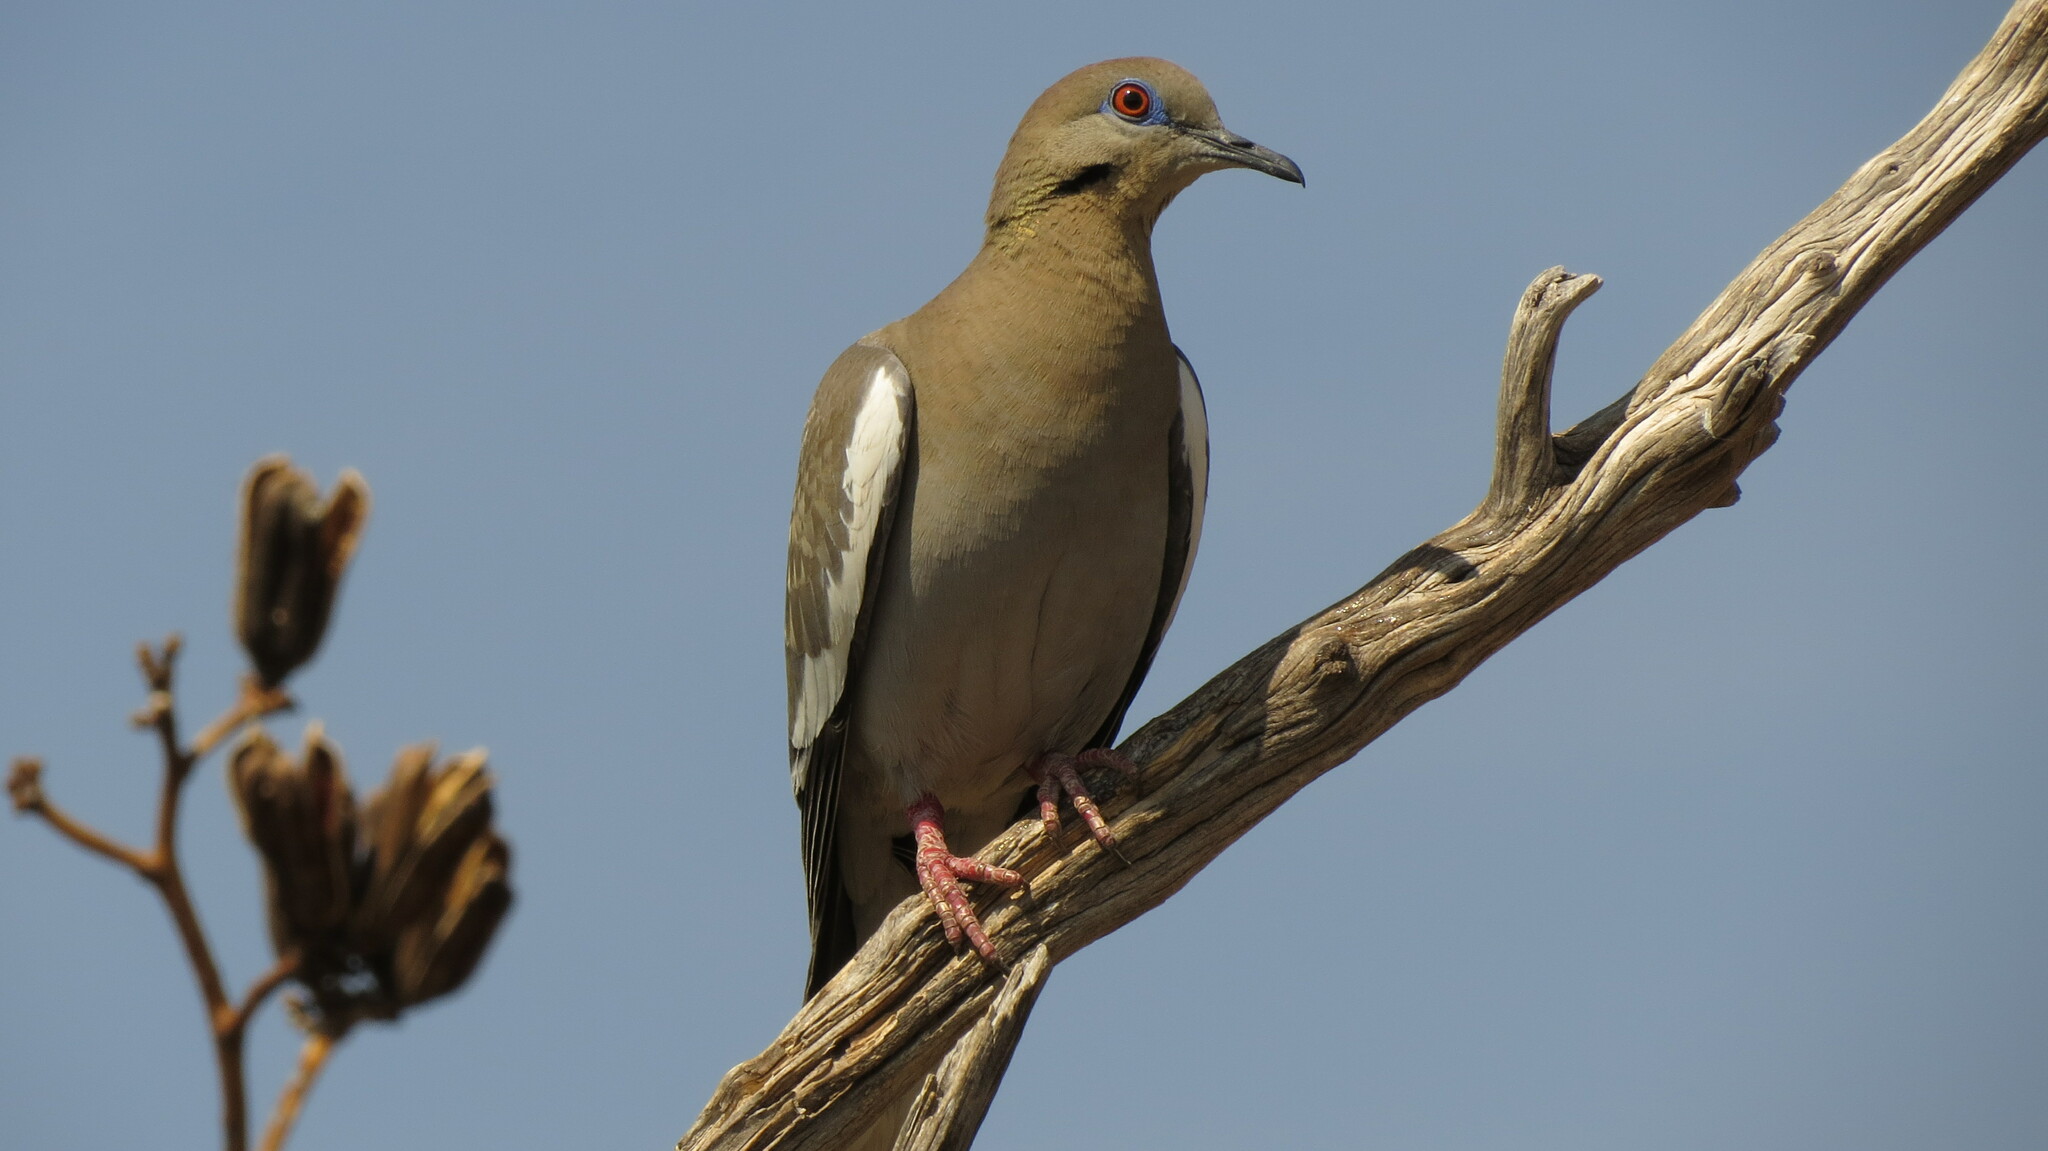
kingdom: Animalia
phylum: Chordata
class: Aves
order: Columbiformes
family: Columbidae
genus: Zenaida
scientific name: Zenaida asiatica
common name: White-winged dove
